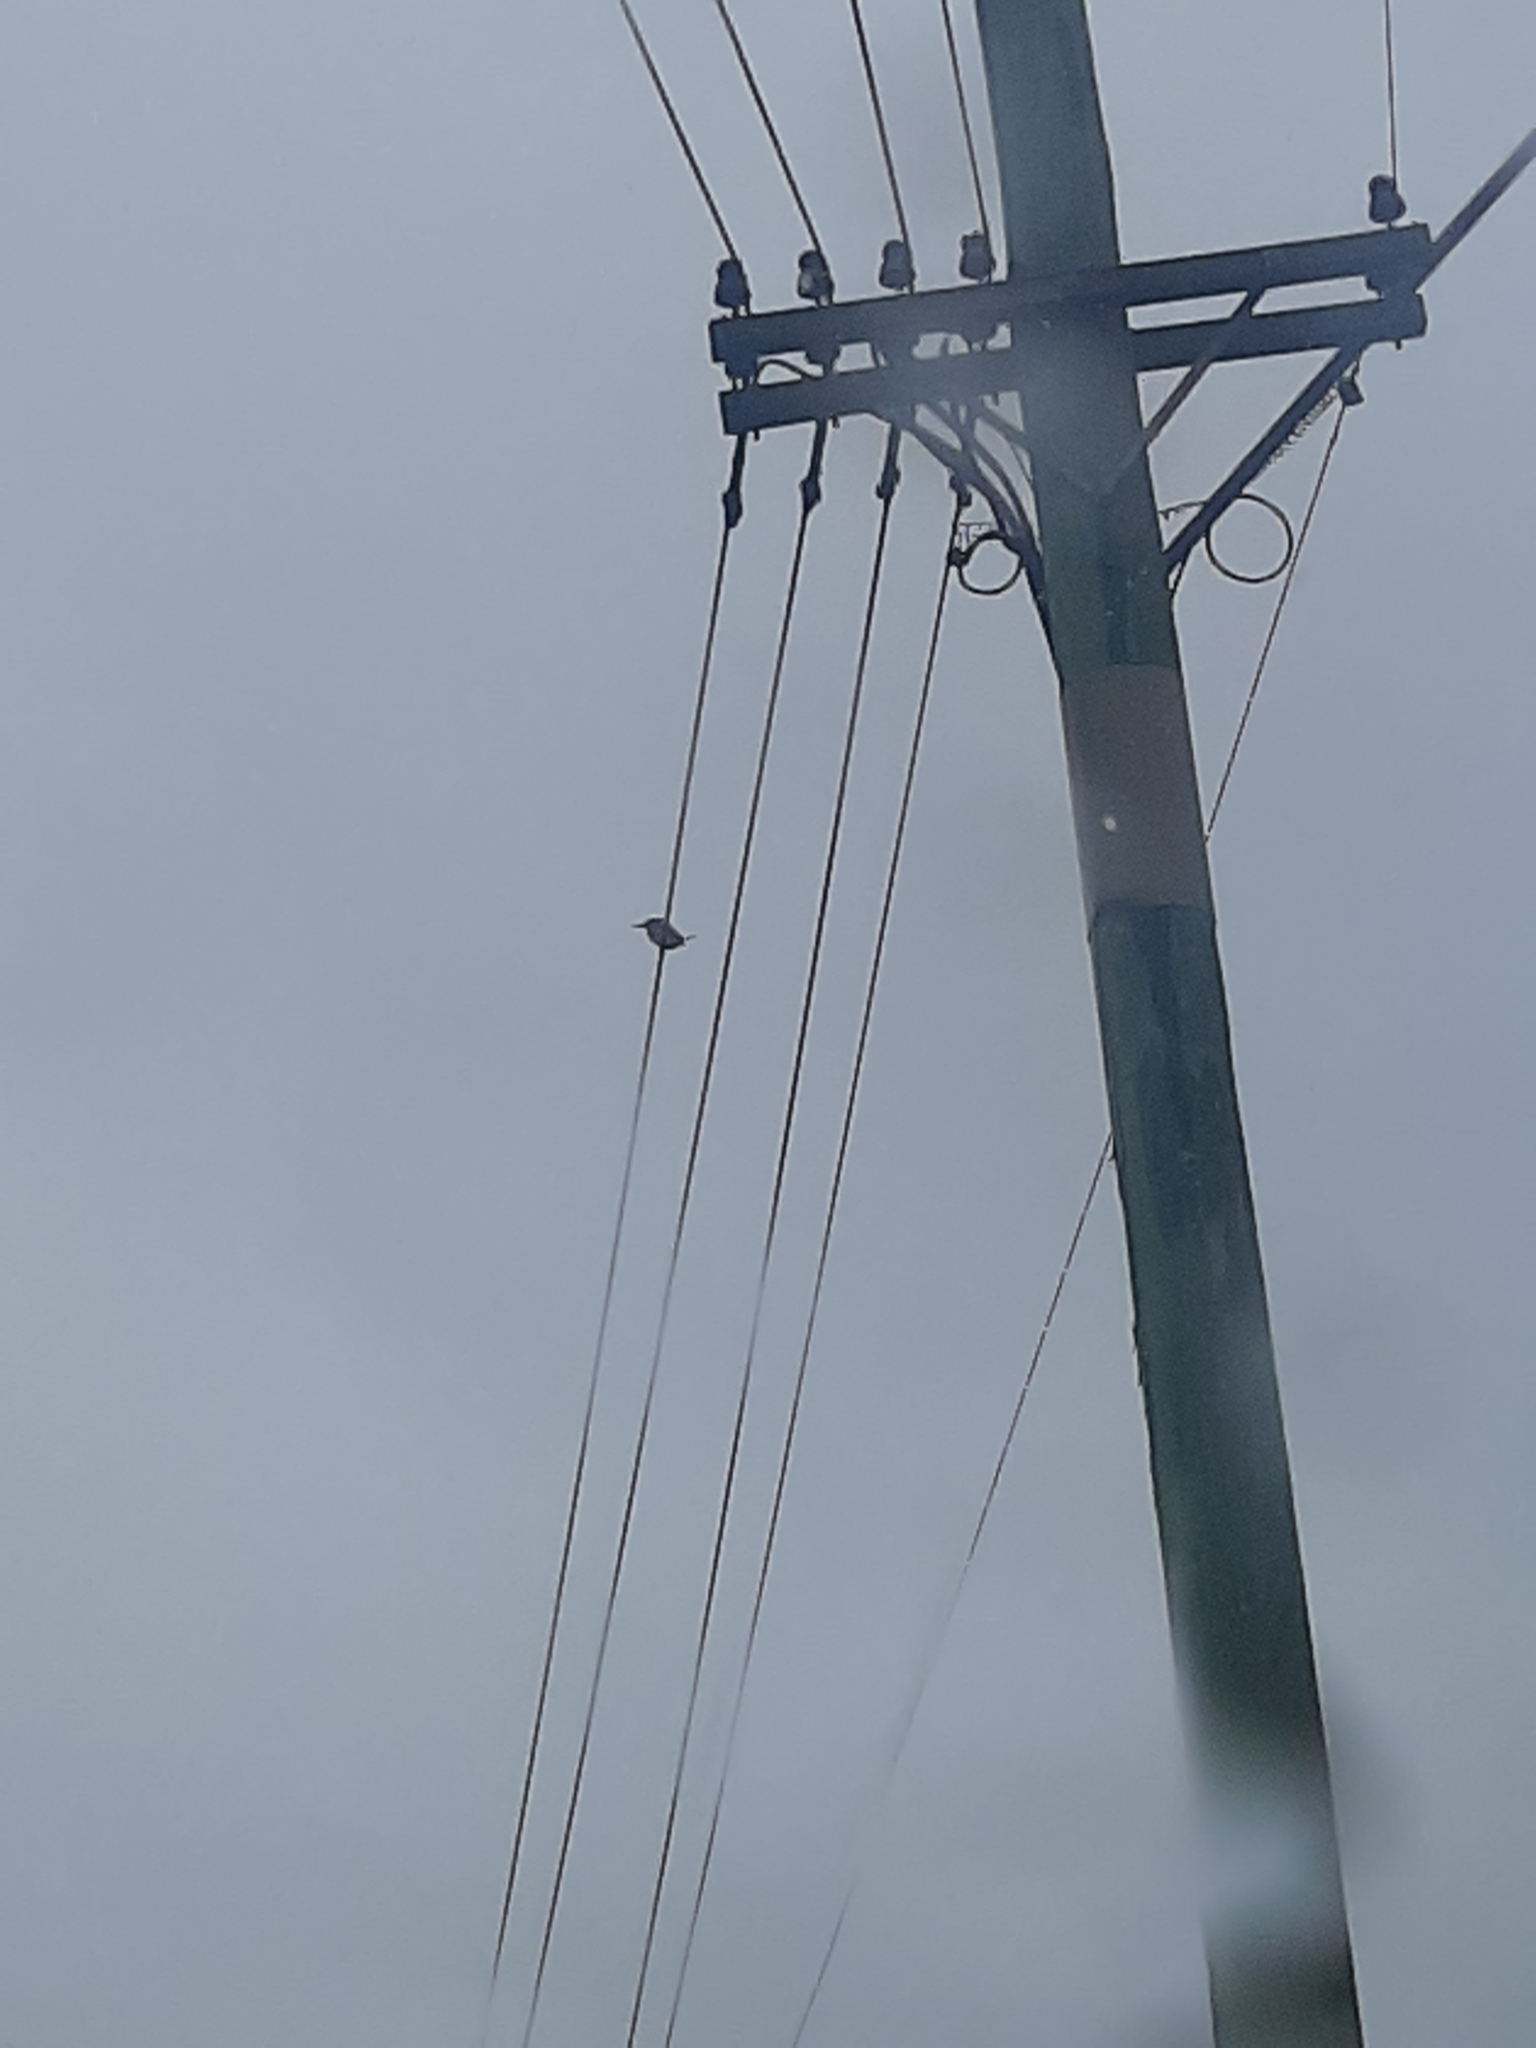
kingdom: Animalia
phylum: Chordata
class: Aves
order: Coraciiformes
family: Alcedinidae
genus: Todiramphus
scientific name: Todiramphus sanctus
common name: Sacred kingfisher
